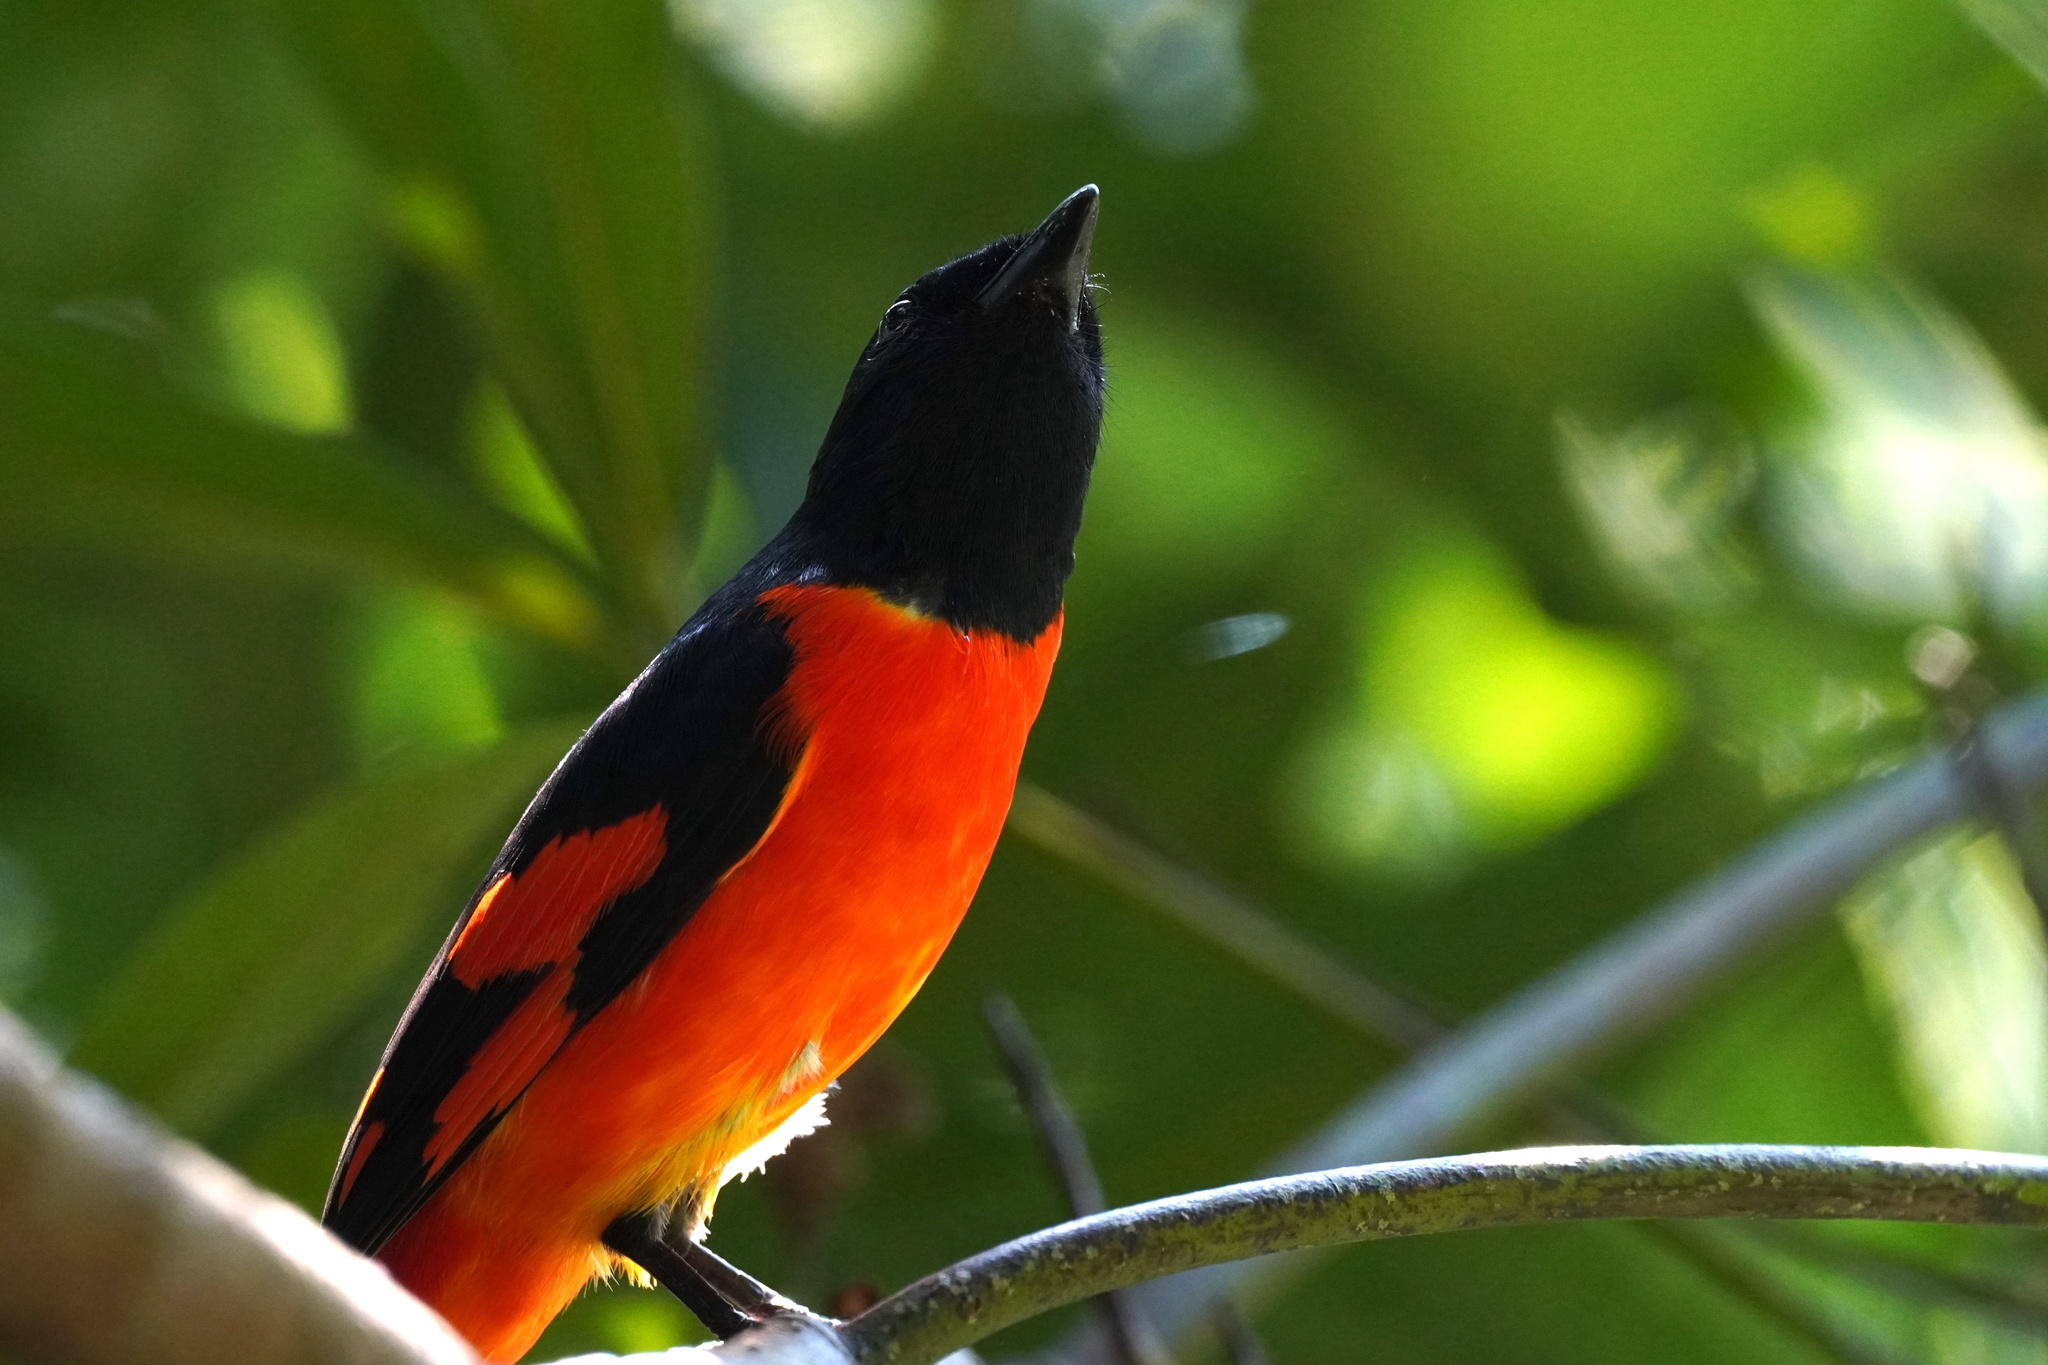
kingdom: Animalia
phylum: Chordata
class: Aves
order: Passeriformes
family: Campephagidae
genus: Pericrocotus
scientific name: Pericrocotus speciosus
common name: Scarlet minivet
